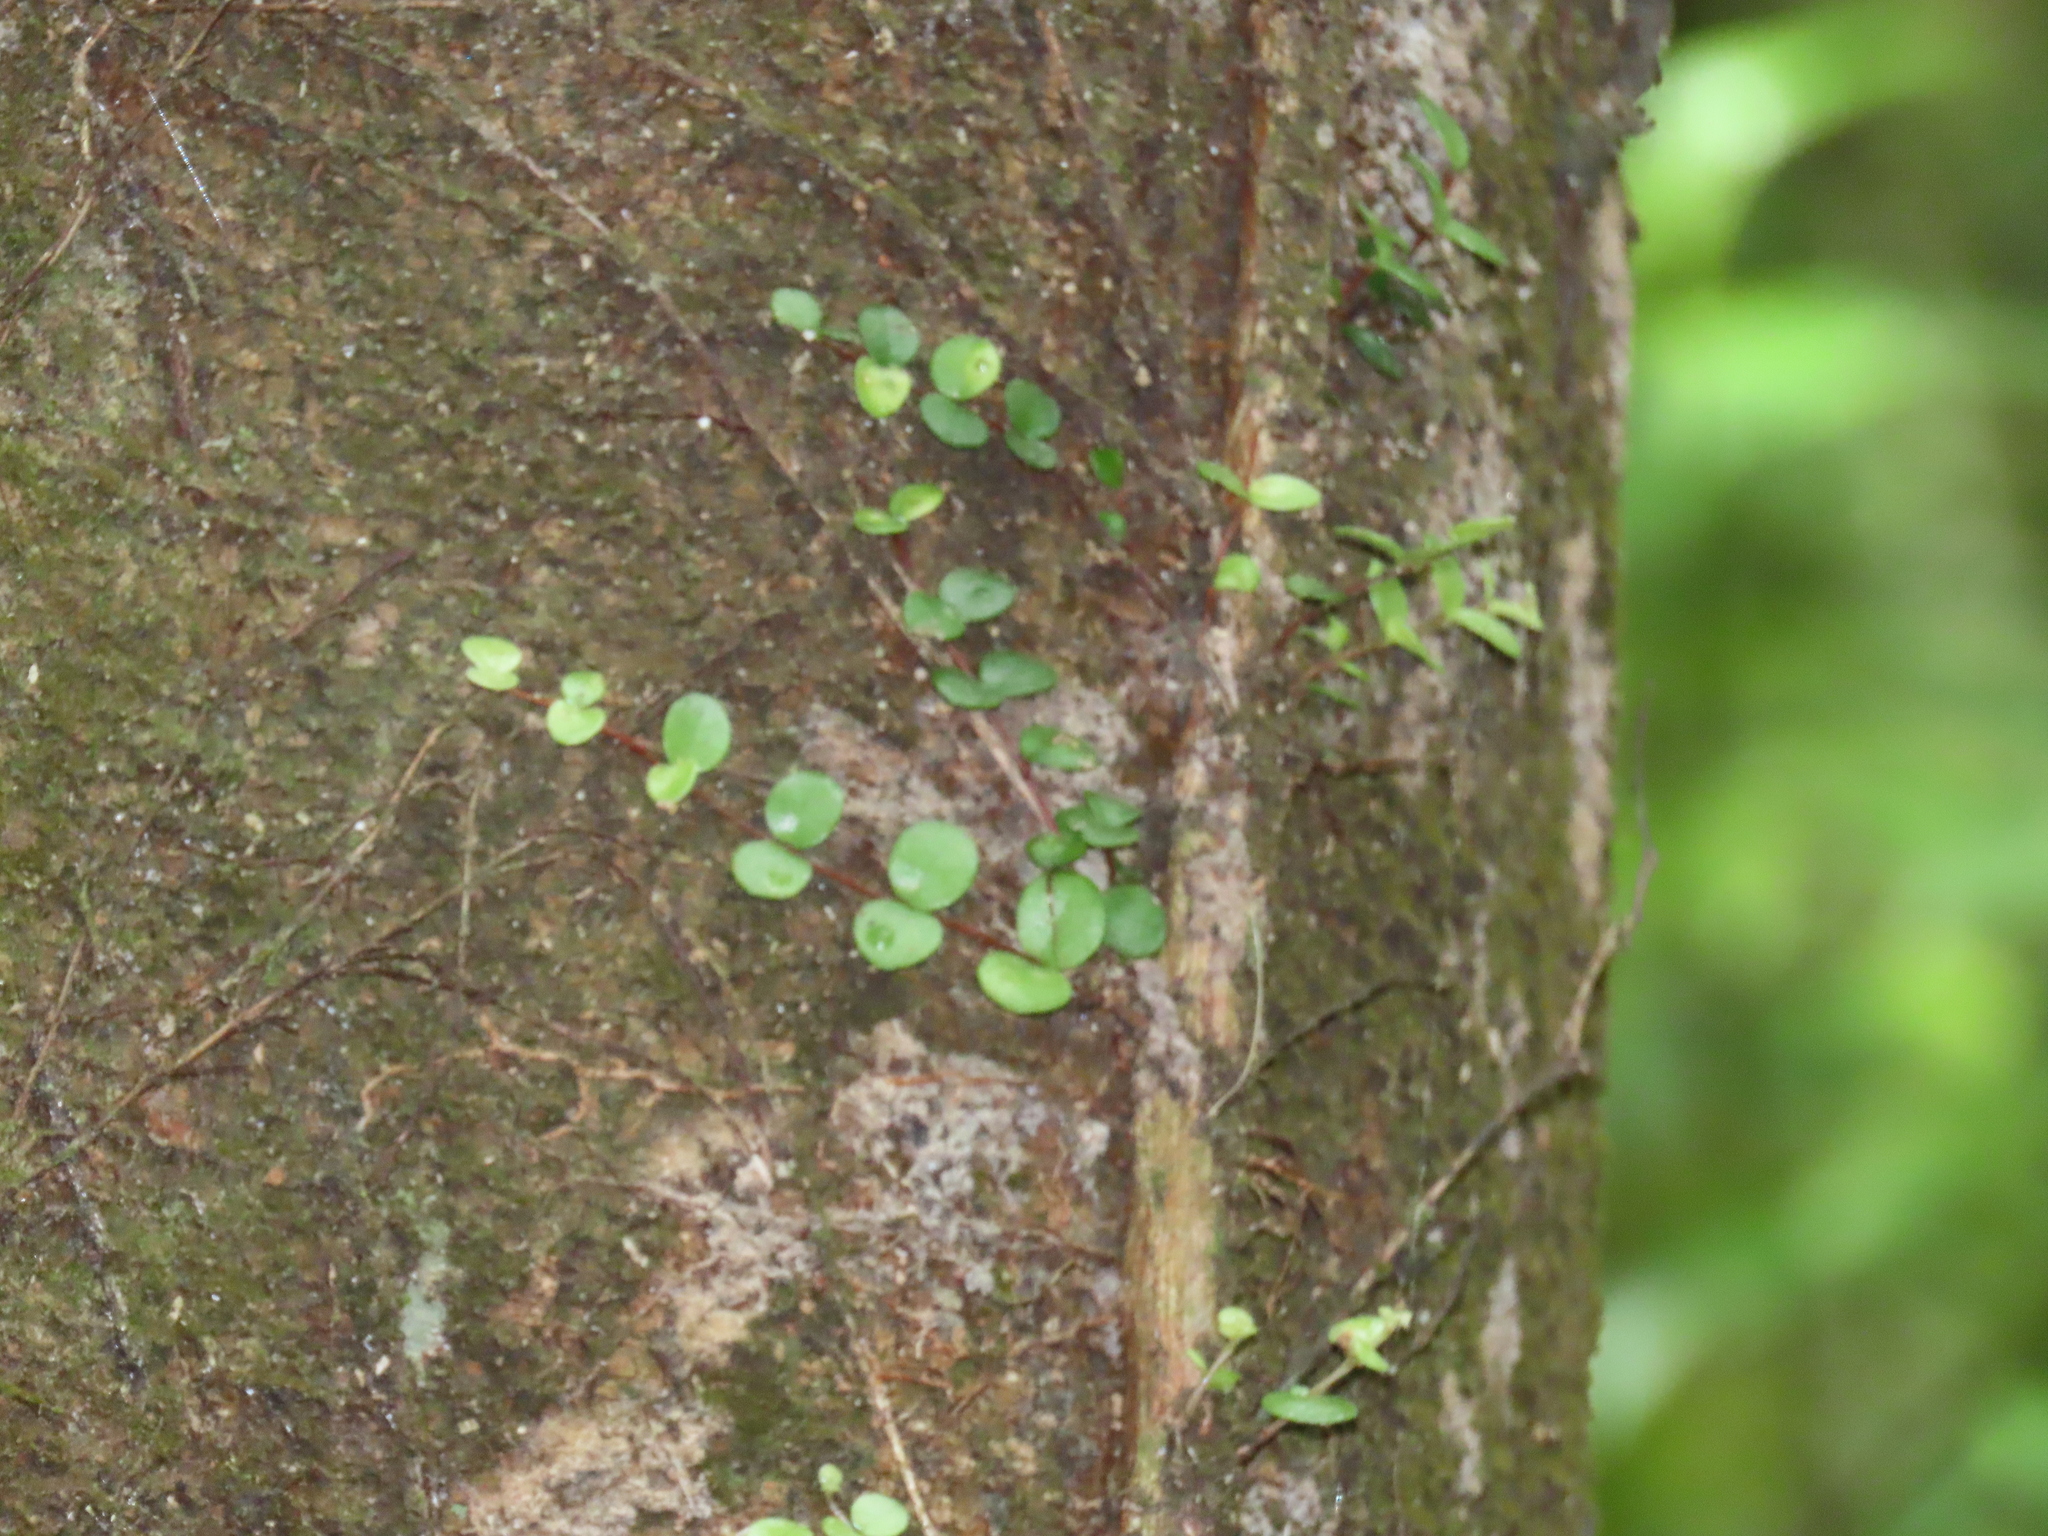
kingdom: Plantae
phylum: Tracheophyta
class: Magnoliopsida
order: Myrtales
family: Myrtaceae
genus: Metrosideros
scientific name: Metrosideros perforata
